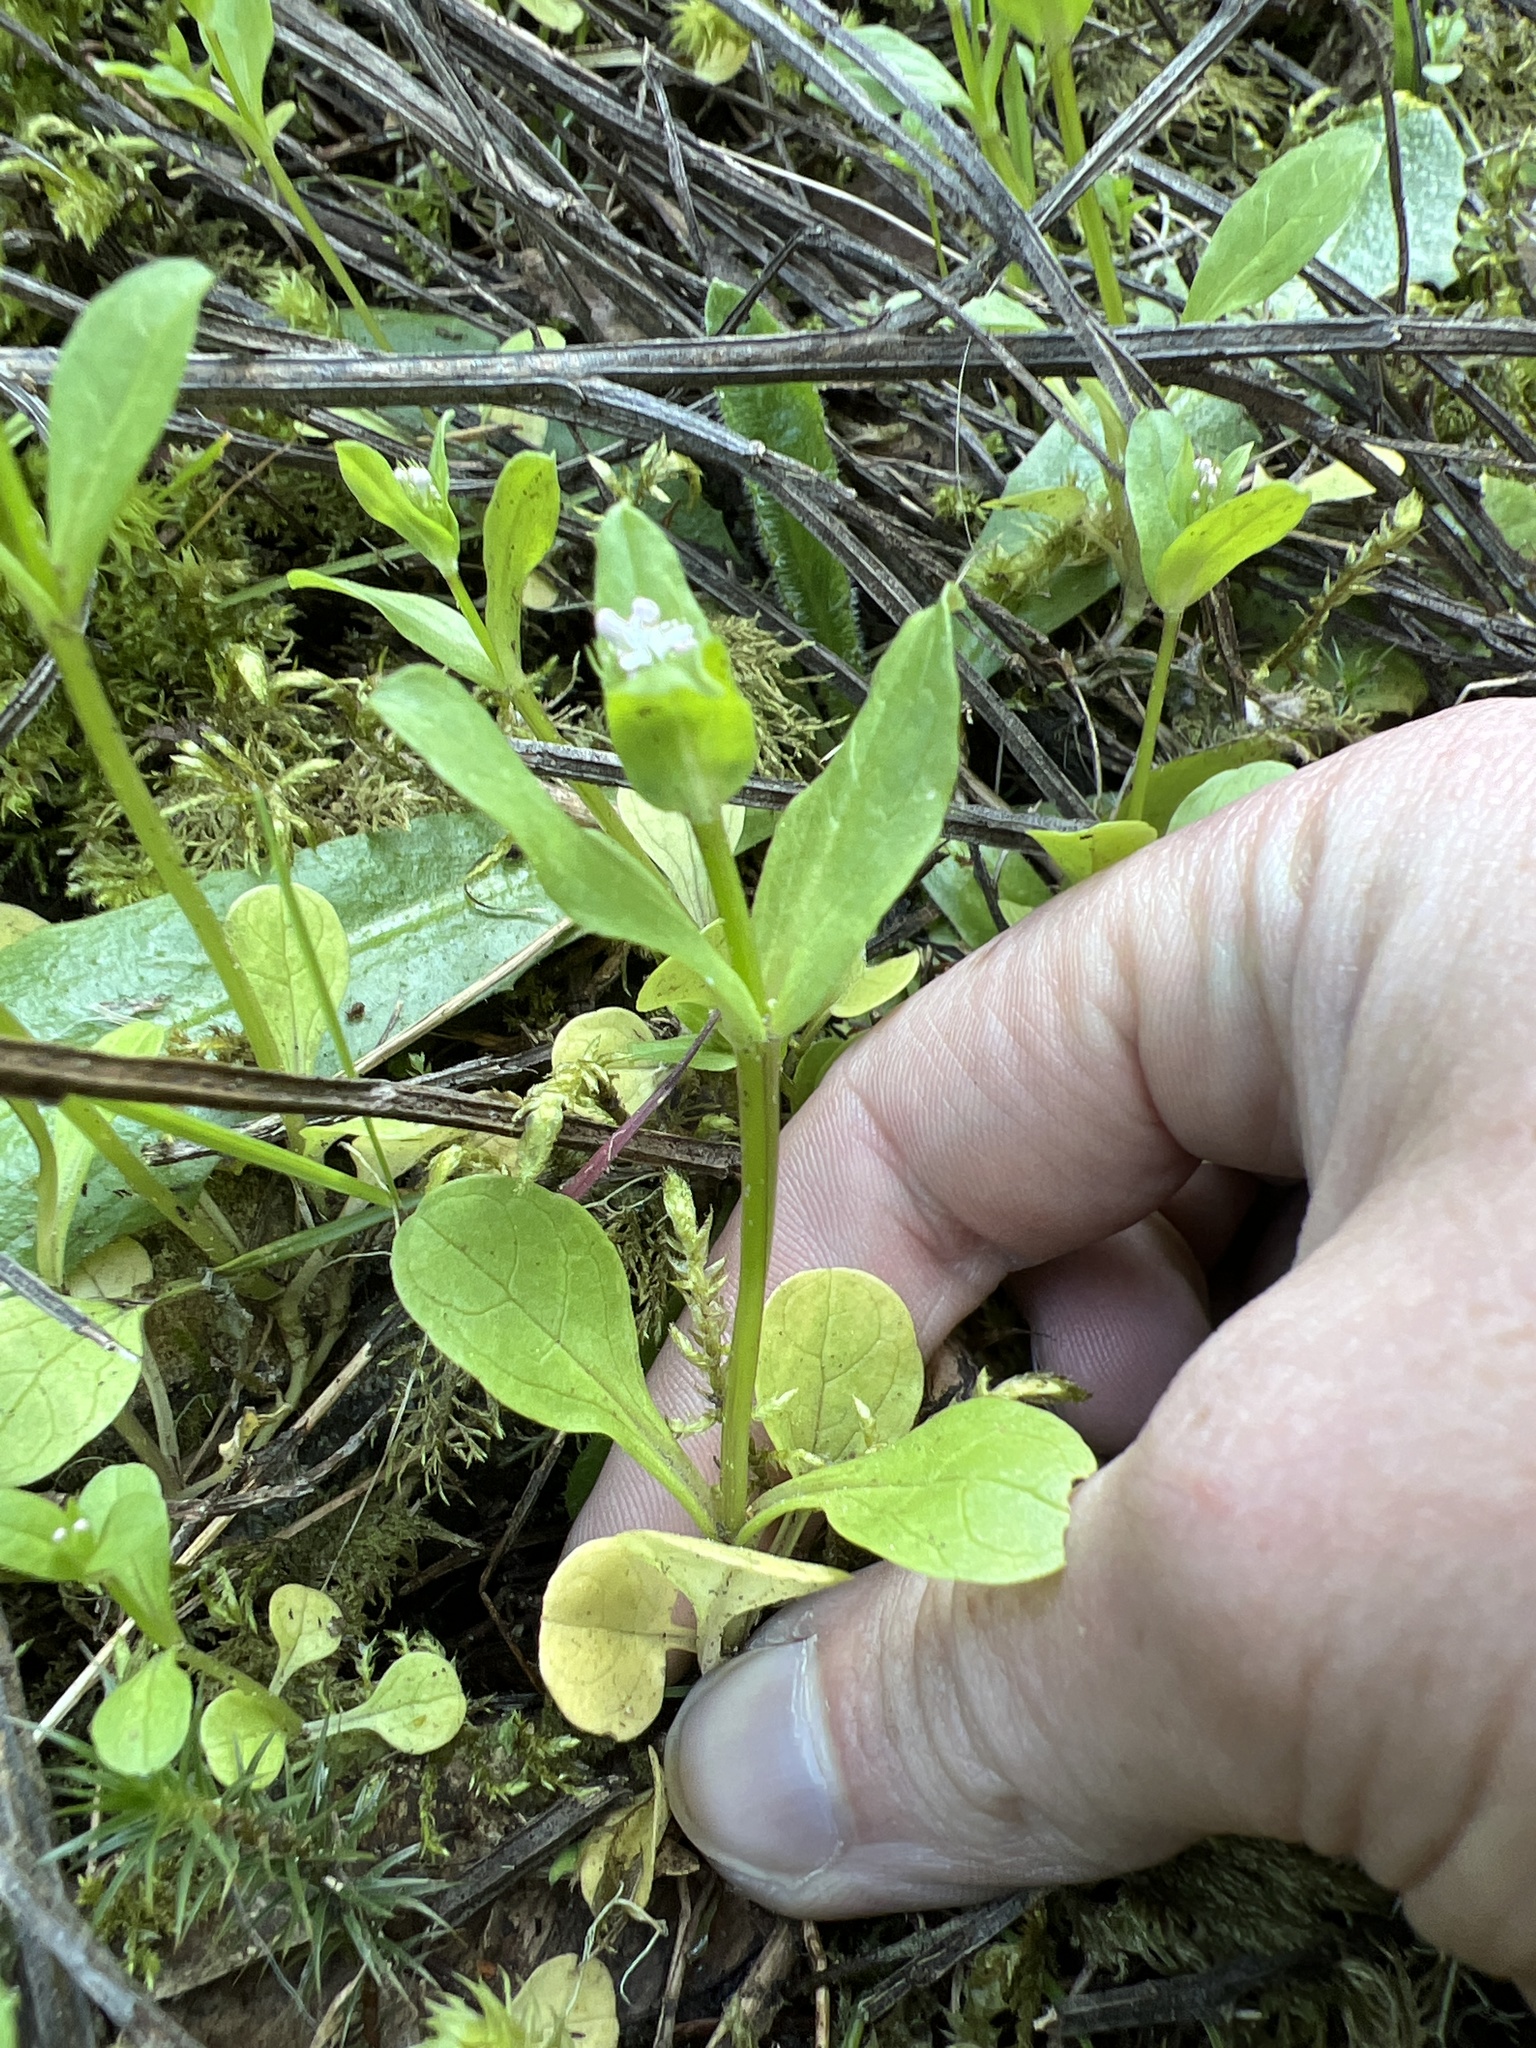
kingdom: Plantae
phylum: Tracheophyta
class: Magnoliopsida
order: Dipsacales
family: Caprifoliaceae
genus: Plectritis
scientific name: Plectritis macroptera
